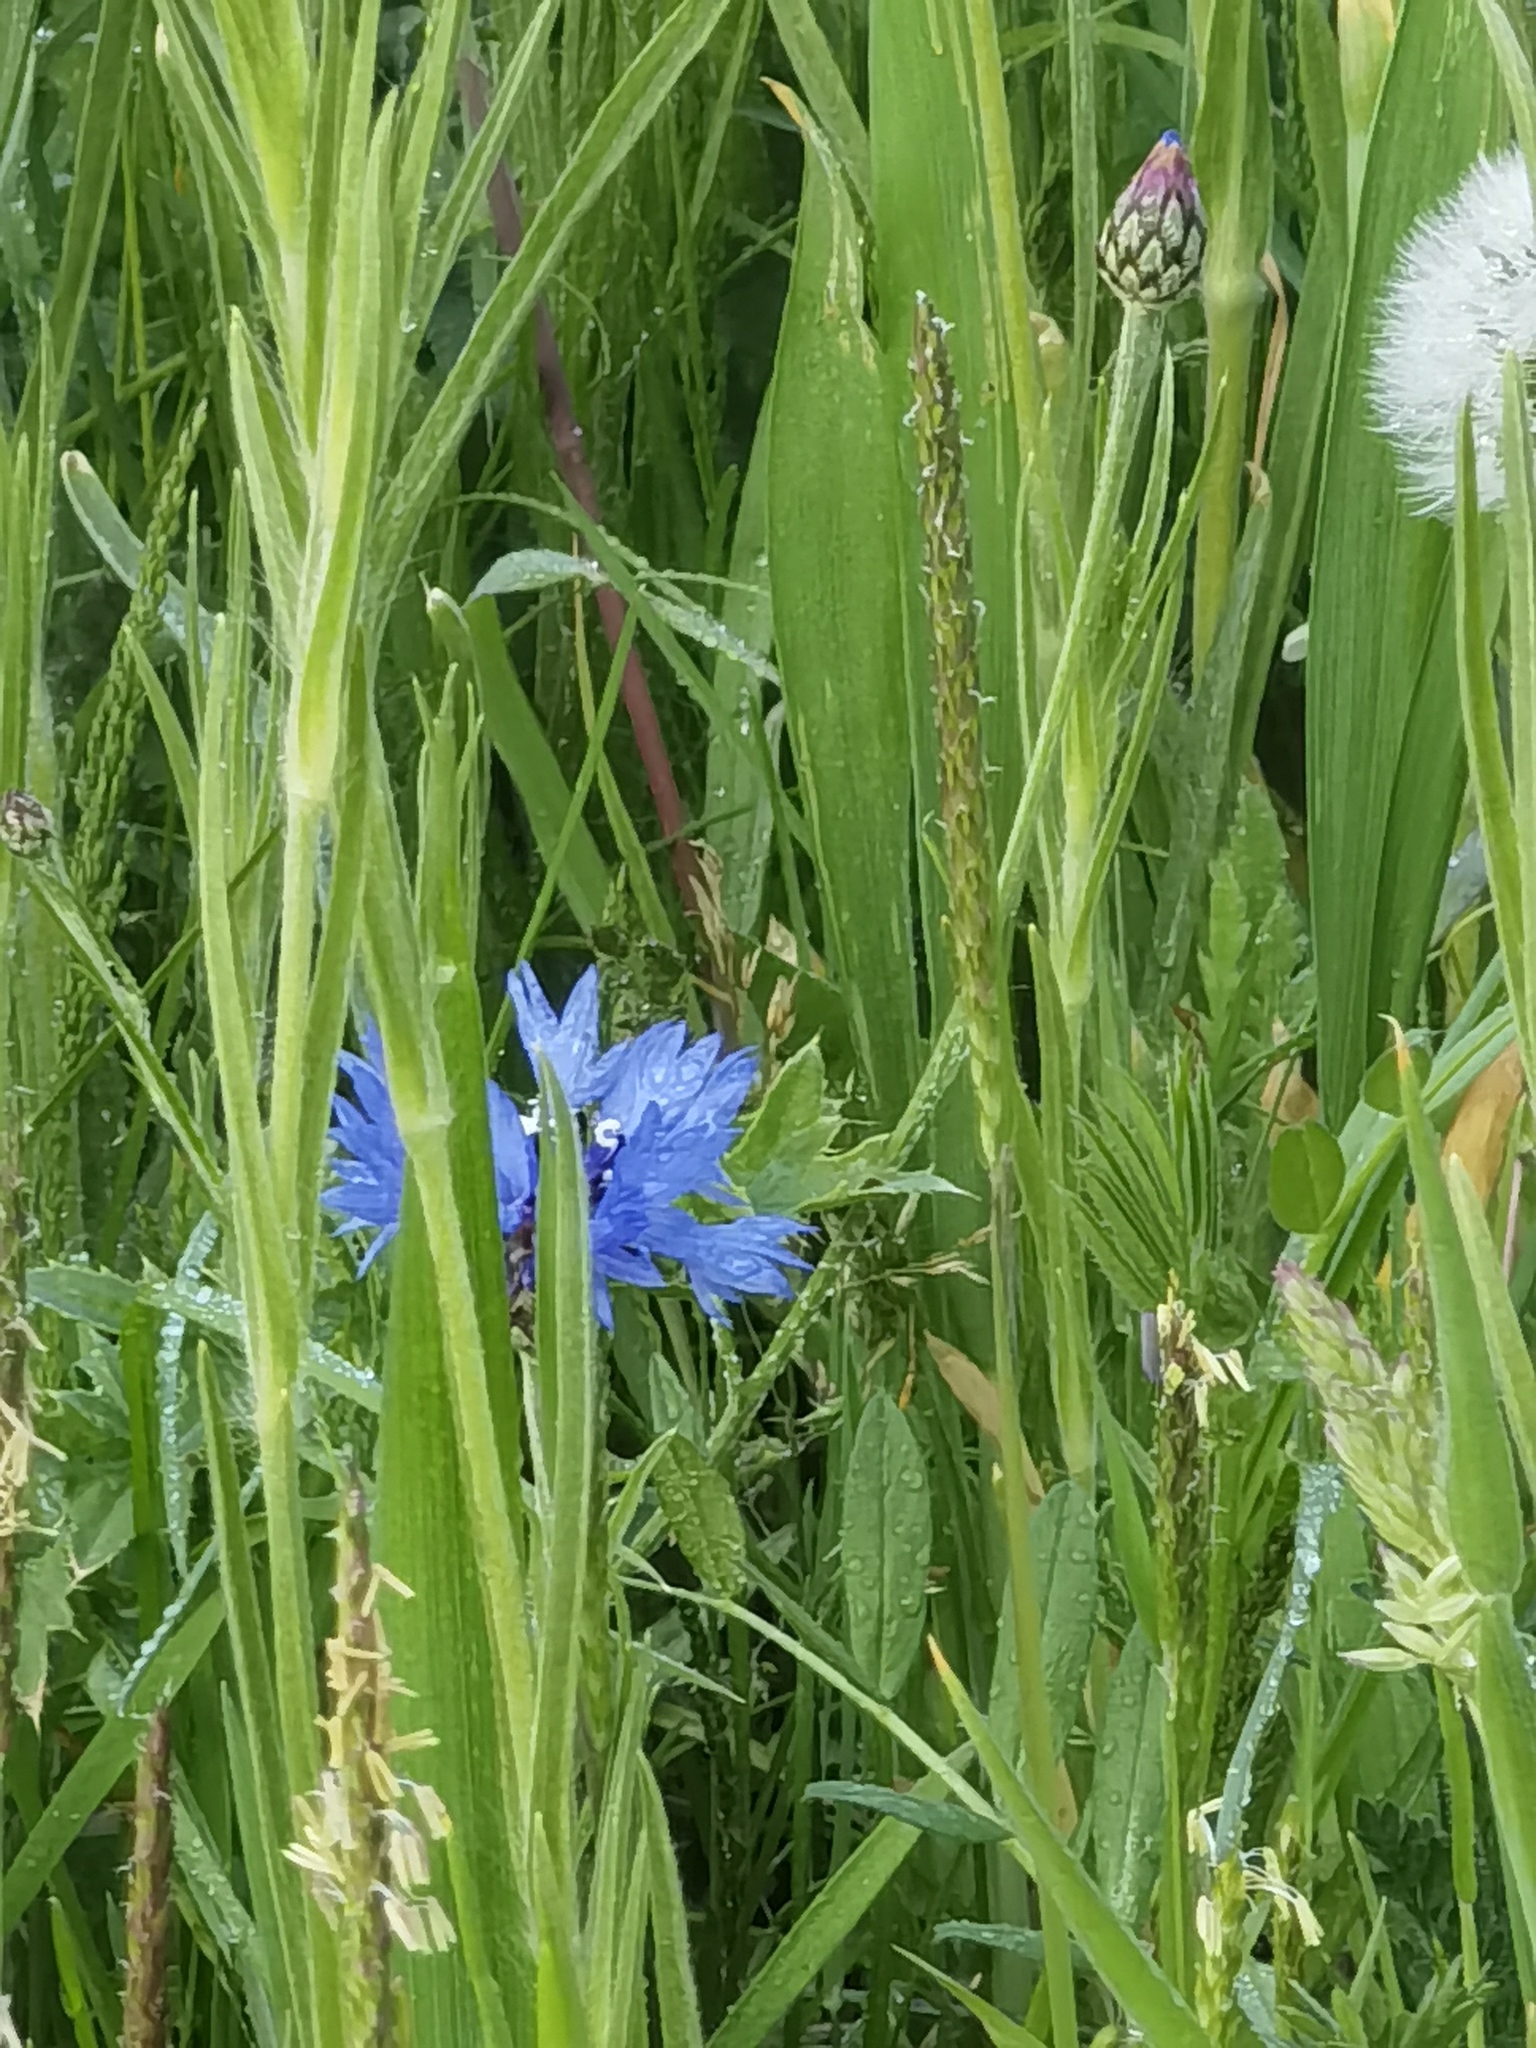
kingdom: Plantae
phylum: Tracheophyta
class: Magnoliopsida
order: Asterales
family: Asteraceae
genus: Centaurea
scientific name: Centaurea cyanus
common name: Cornflower
